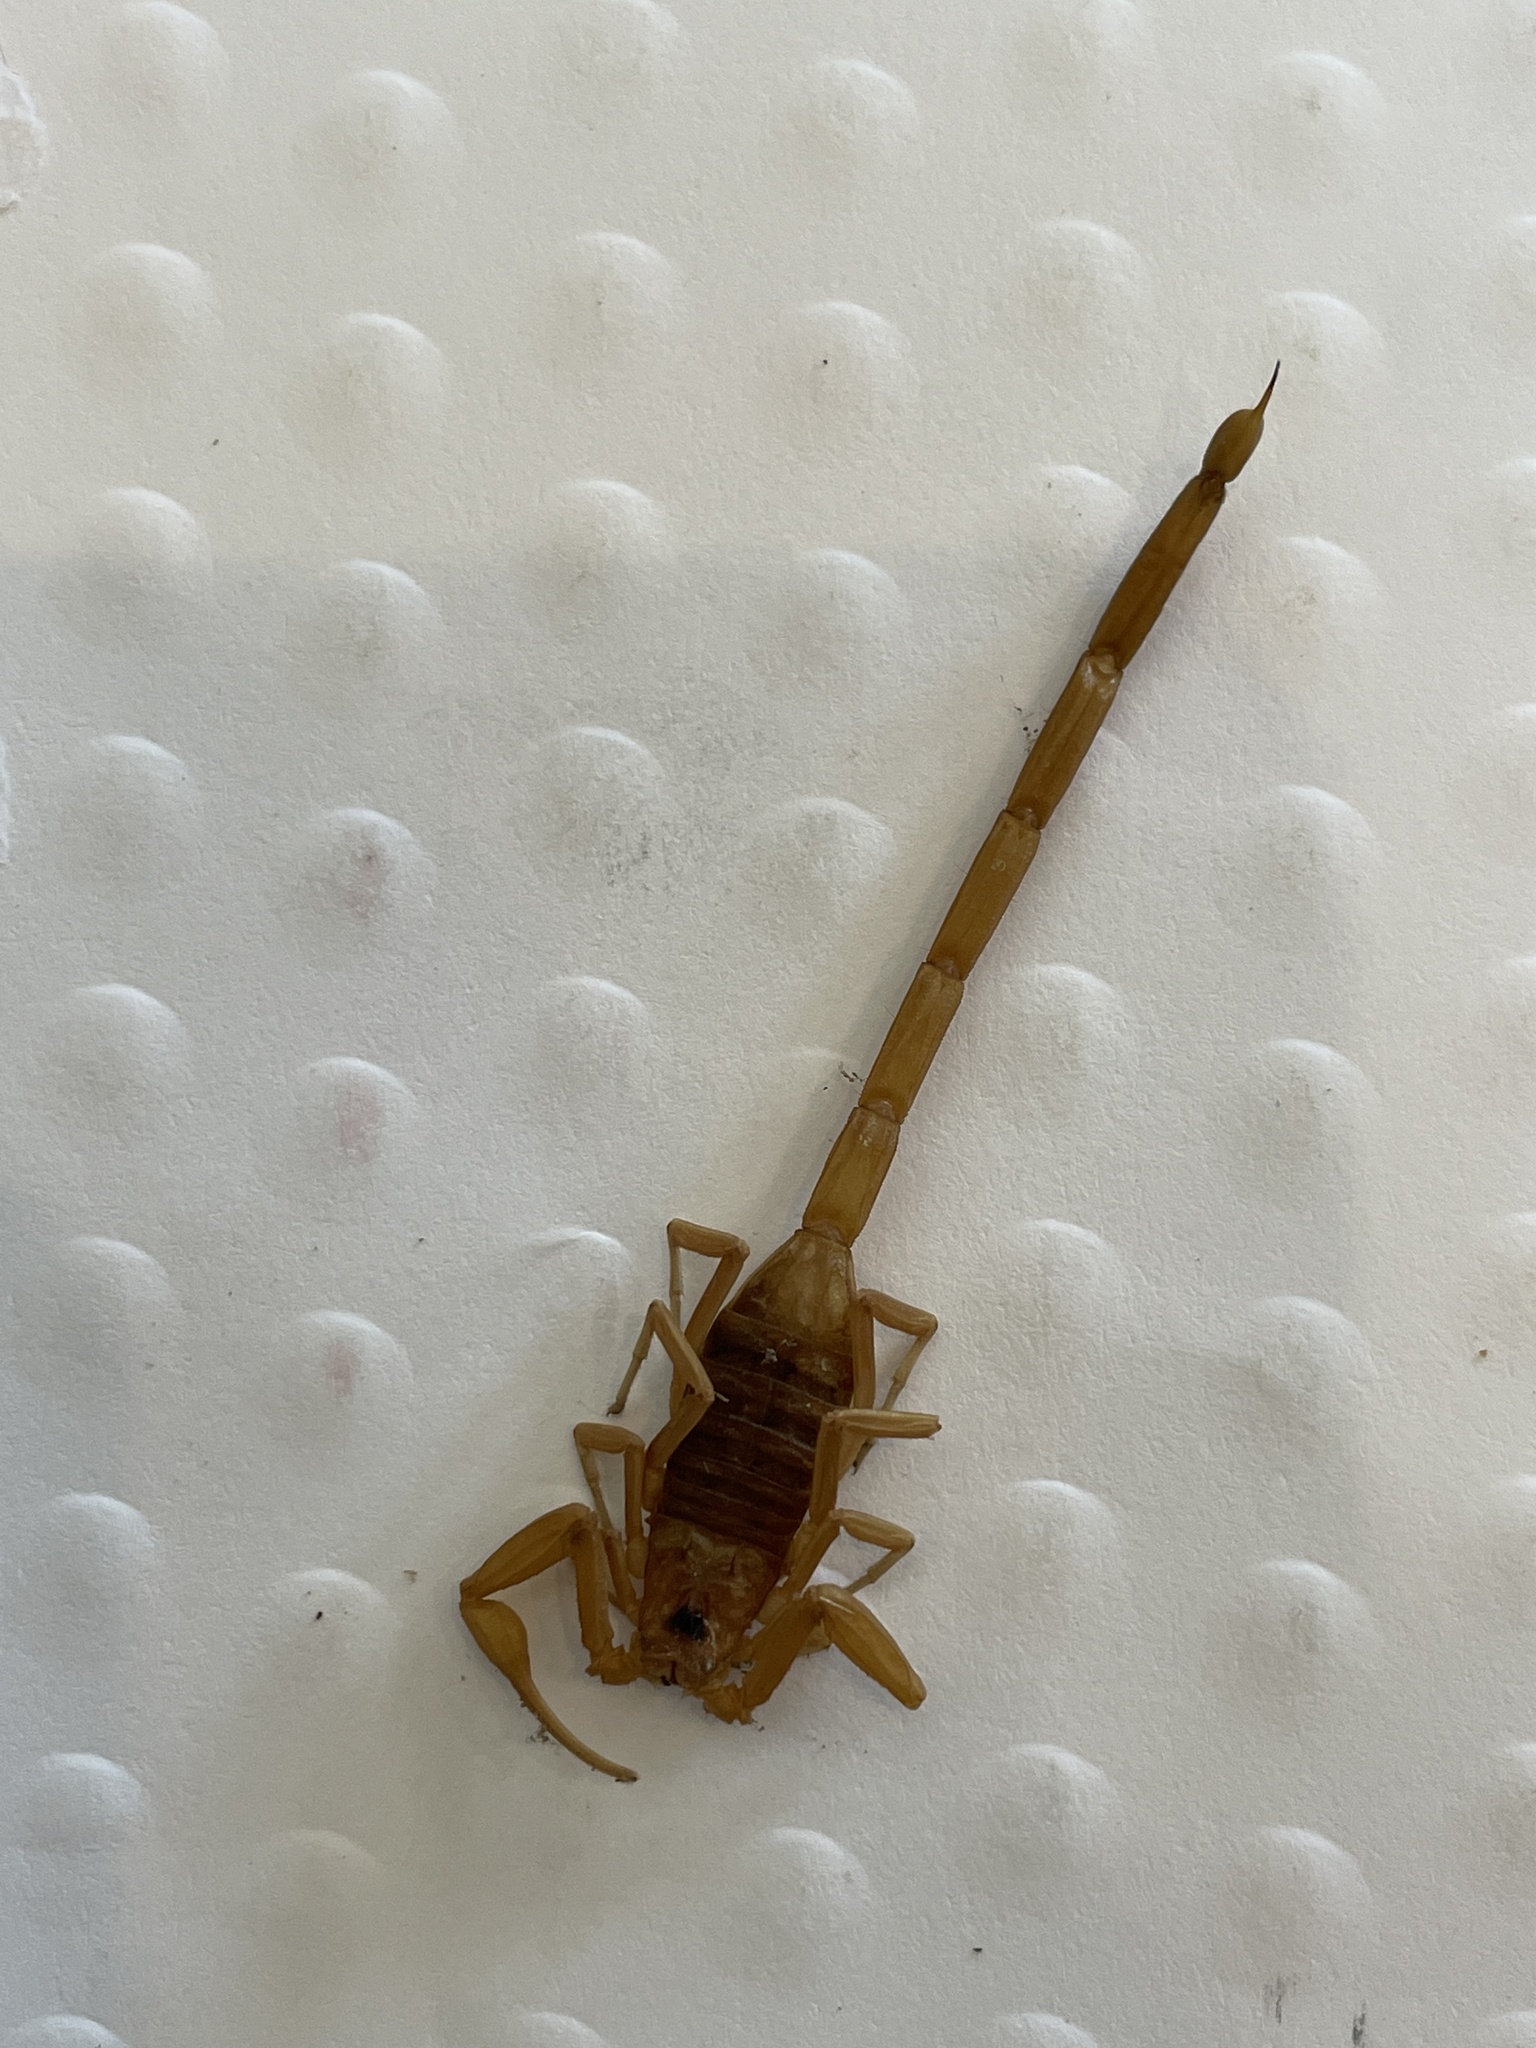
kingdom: Animalia
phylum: Arthropoda
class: Arachnida
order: Scorpiones
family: Buthidae
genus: Centruroides
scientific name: Centruroides sculpturatus
